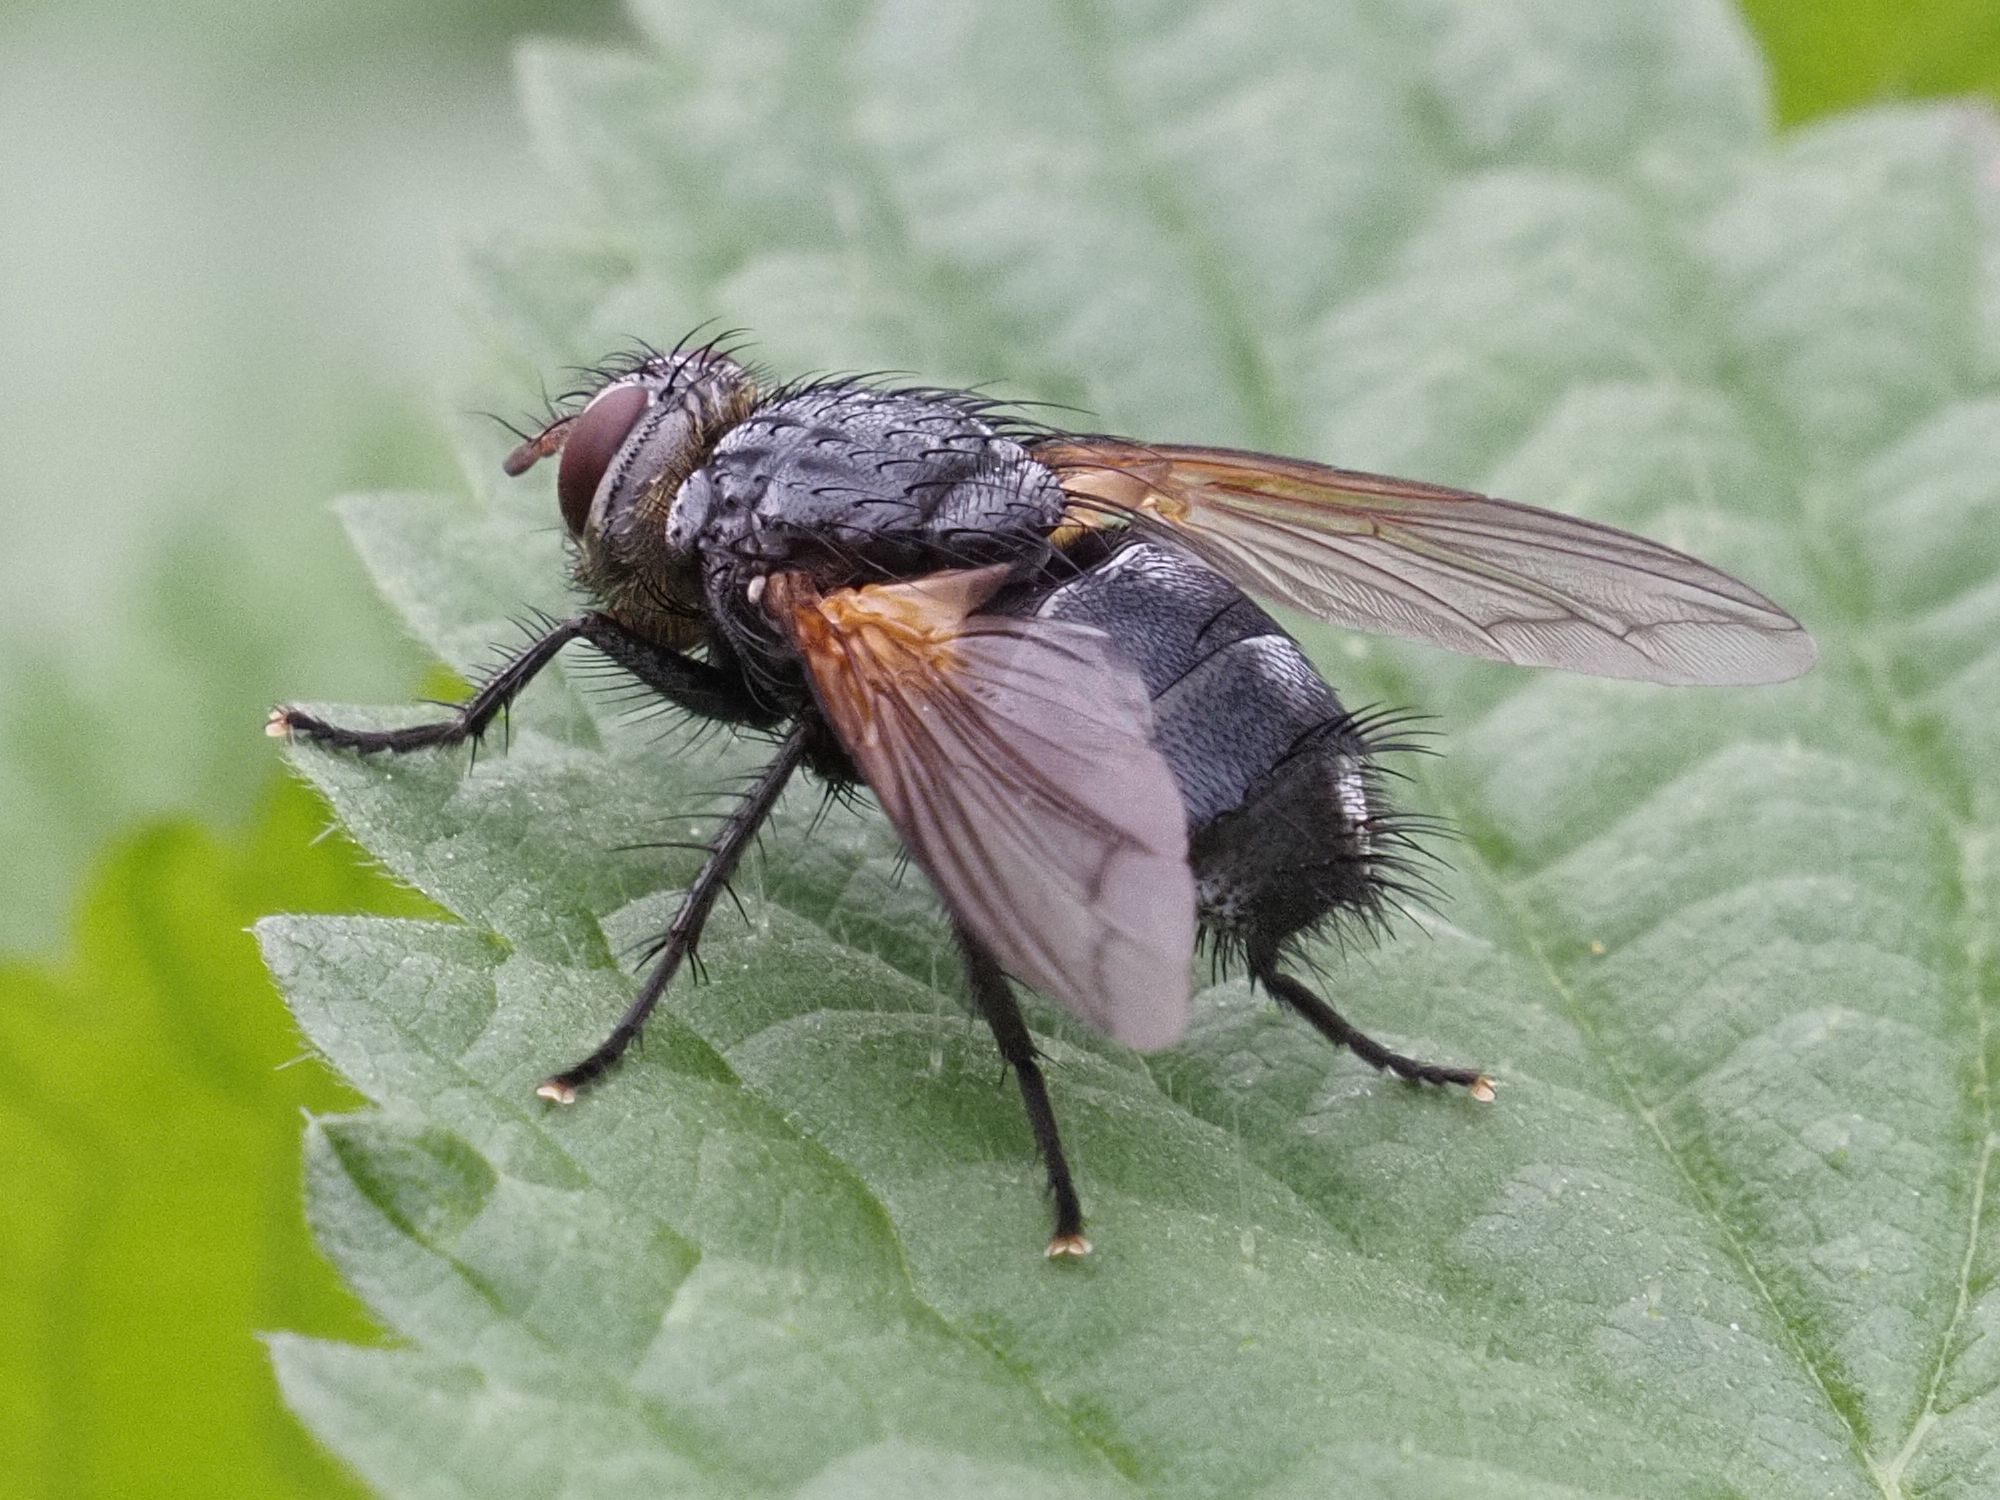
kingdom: Animalia
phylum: Arthropoda
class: Insecta
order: Diptera
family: Tachinidae
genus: Nemoraea
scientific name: Nemoraea pellucida
